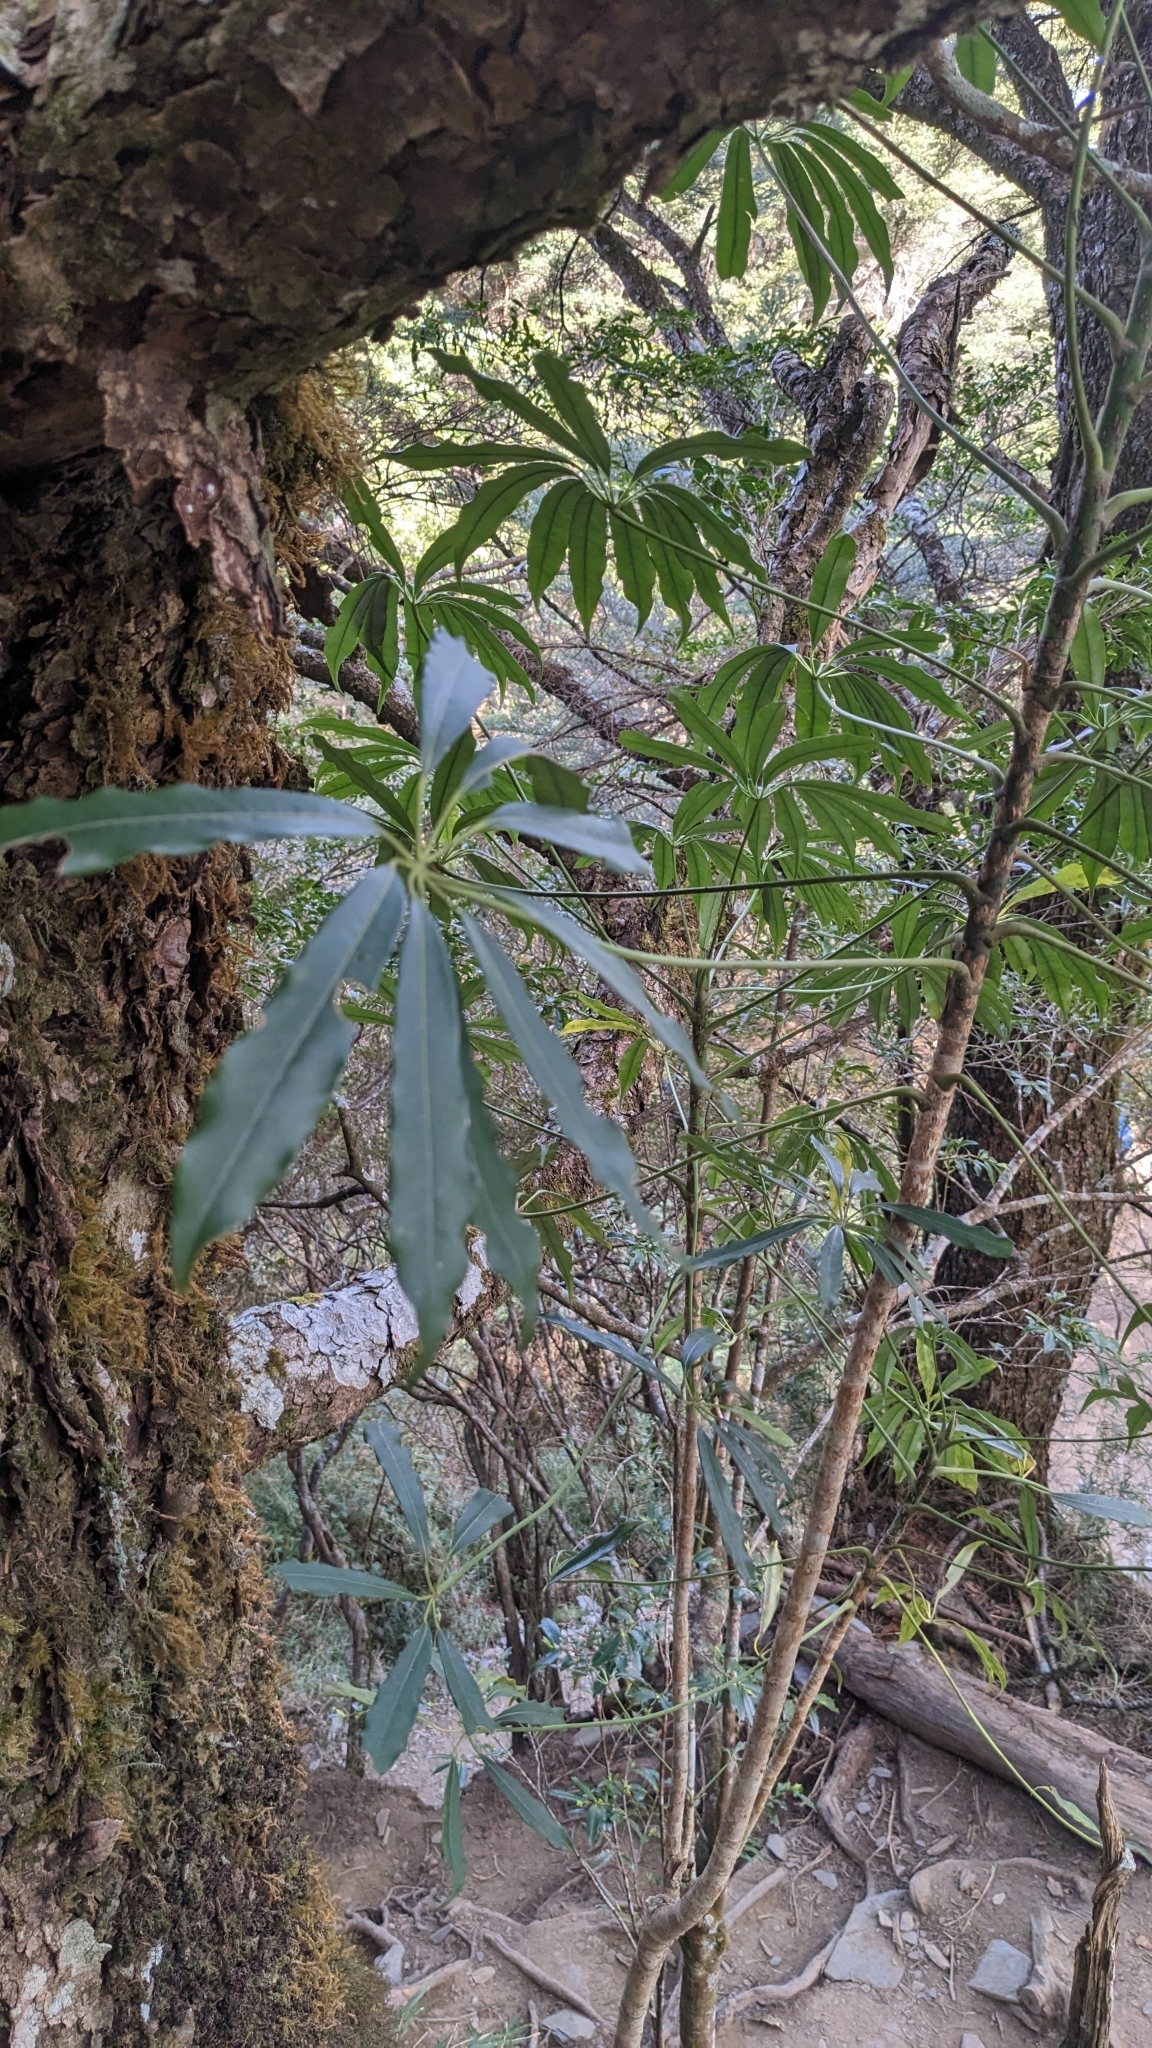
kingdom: Plantae
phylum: Tracheophyta
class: Magnoliopsida
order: Apiales
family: Araliaceae
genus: Heptapleurum
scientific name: Heptapleurum taiwanianum
